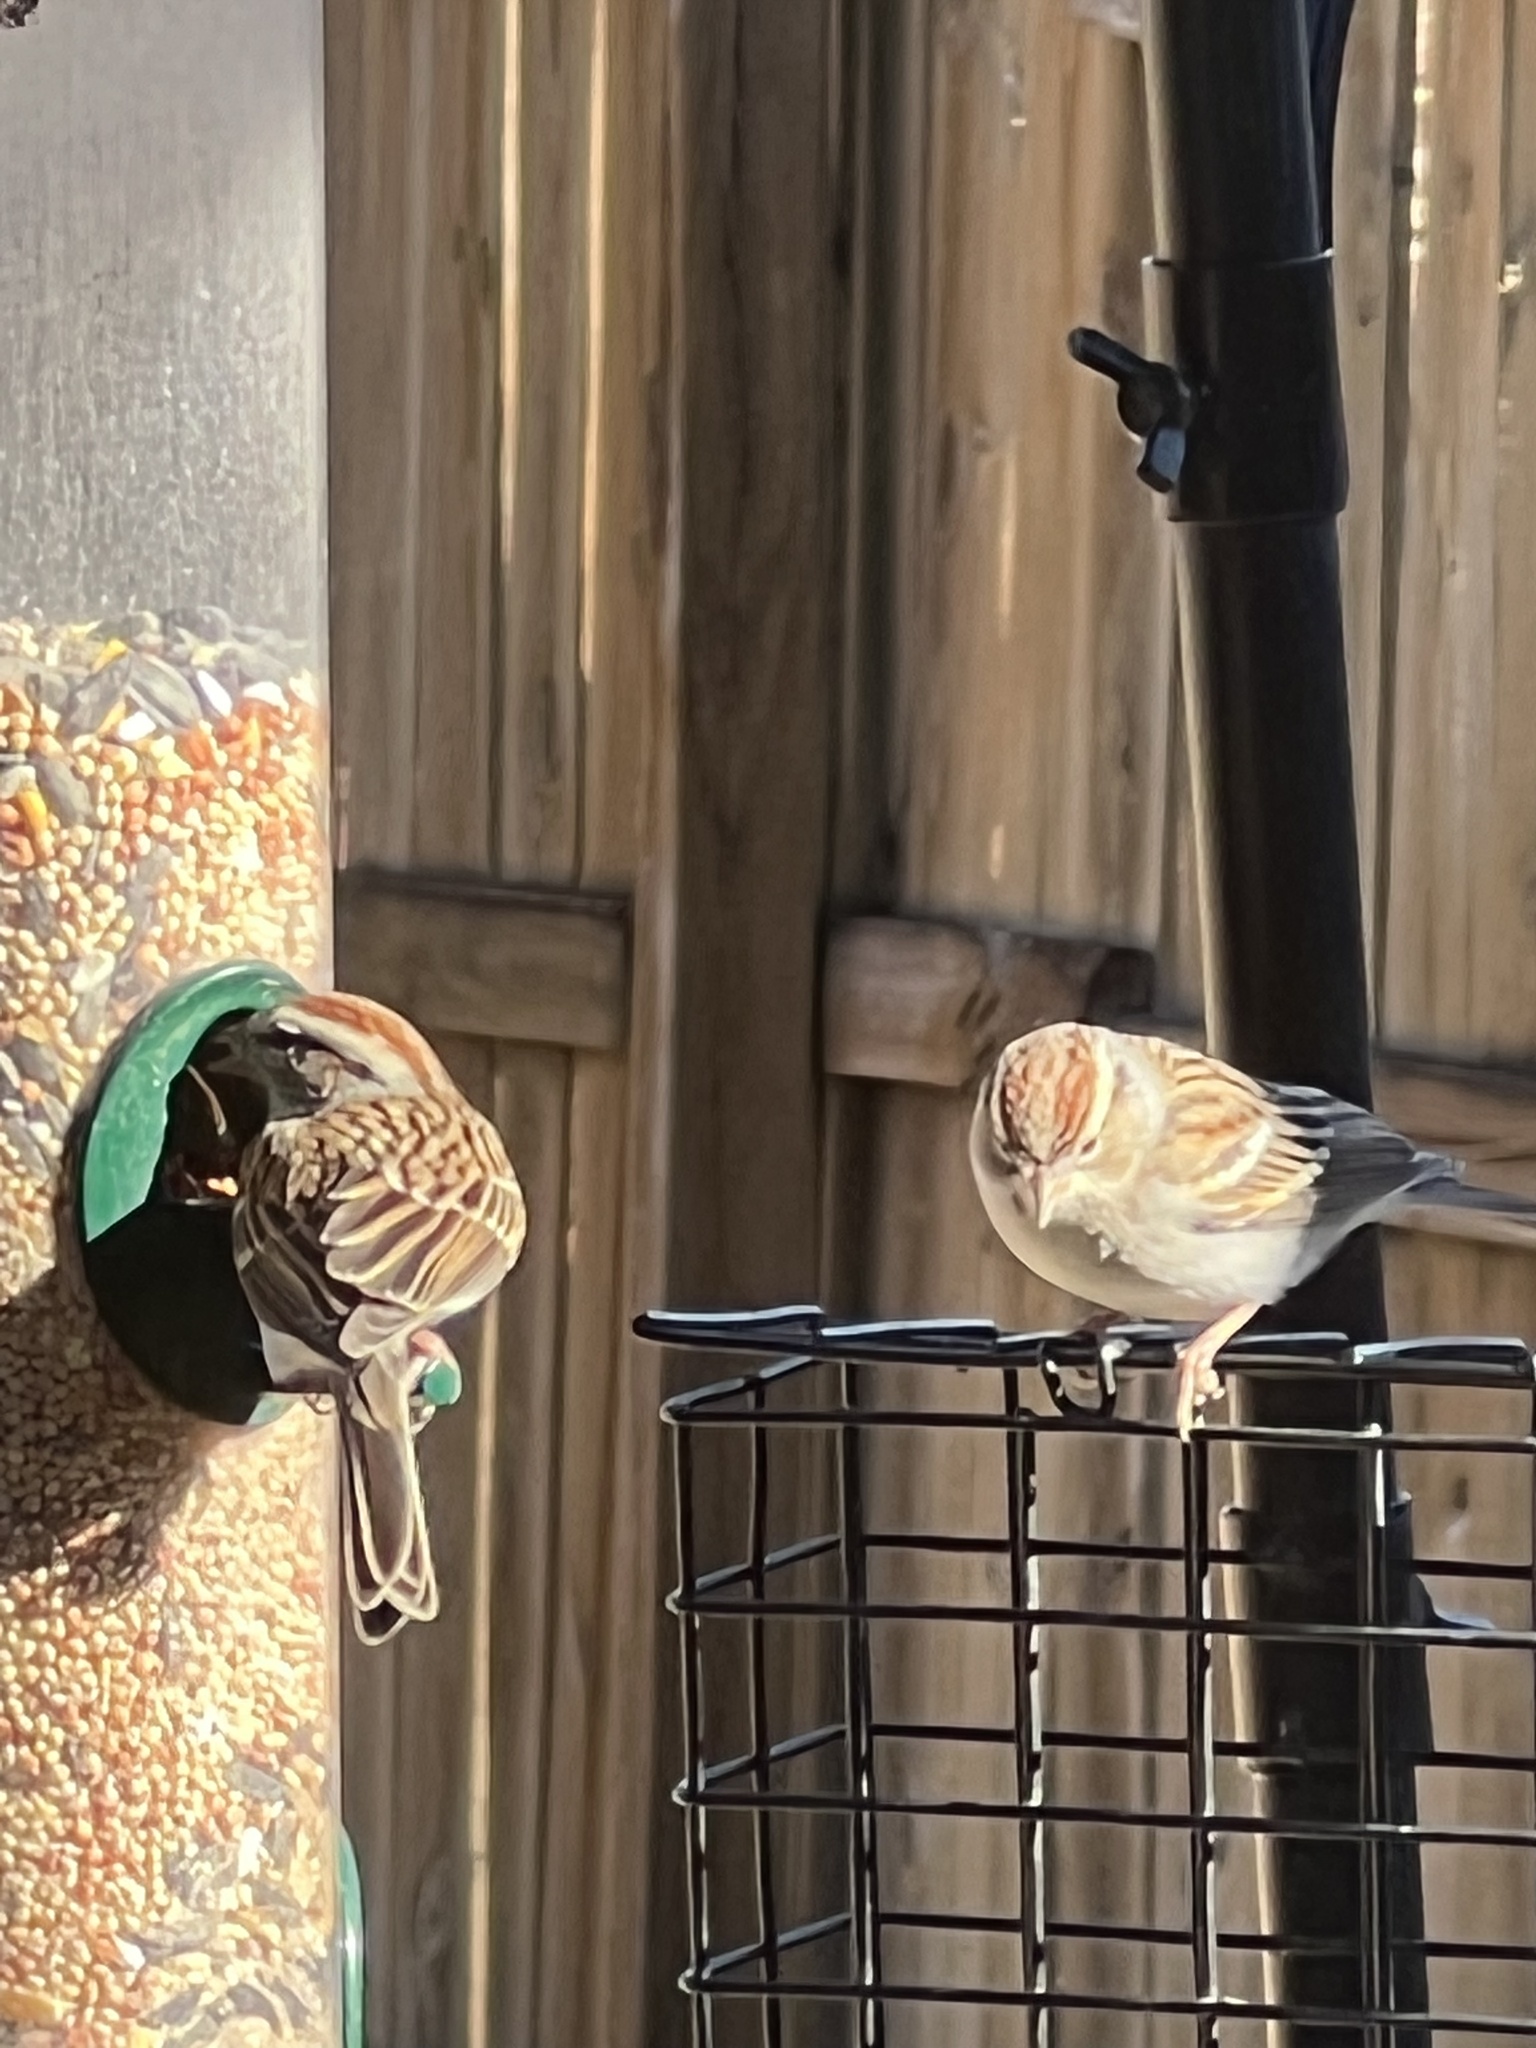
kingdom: Animalia
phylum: Chordata
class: Aves
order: Passeriformes
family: Passerellidae
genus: Spizella
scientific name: Spizella passerina
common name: Chipping sparrow
